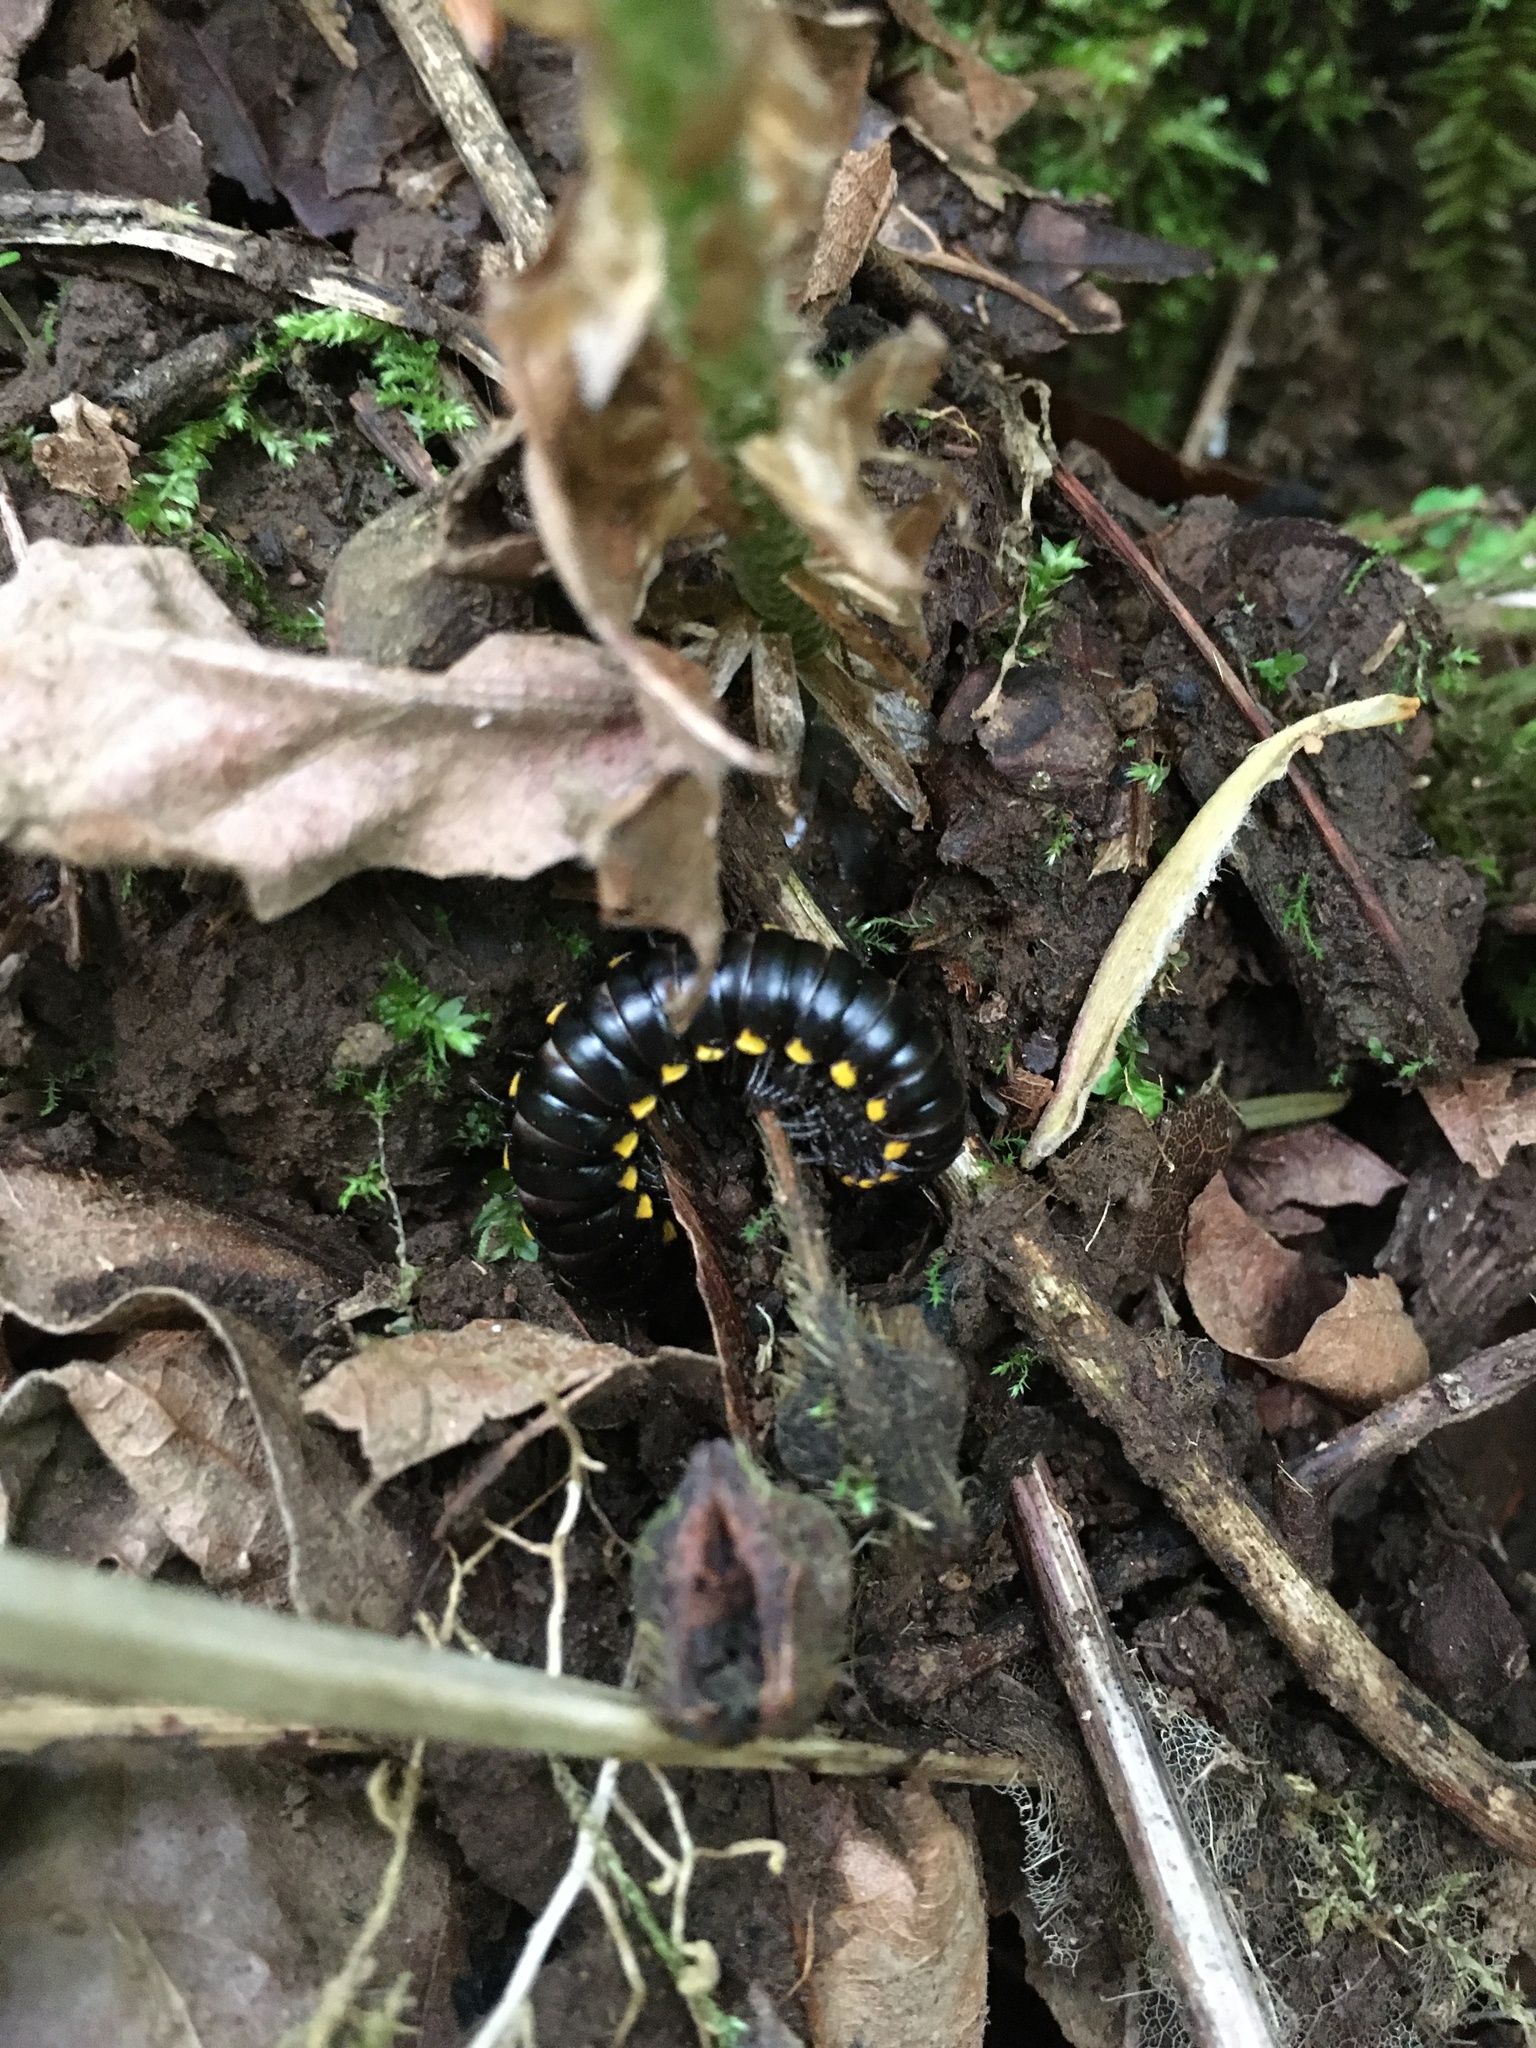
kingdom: Animalia
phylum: Arthropoda
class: Diplopoda
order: Polydesmida
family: Xystodesmidae
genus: Harpaphe
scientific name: Harpaphe haydeniana
